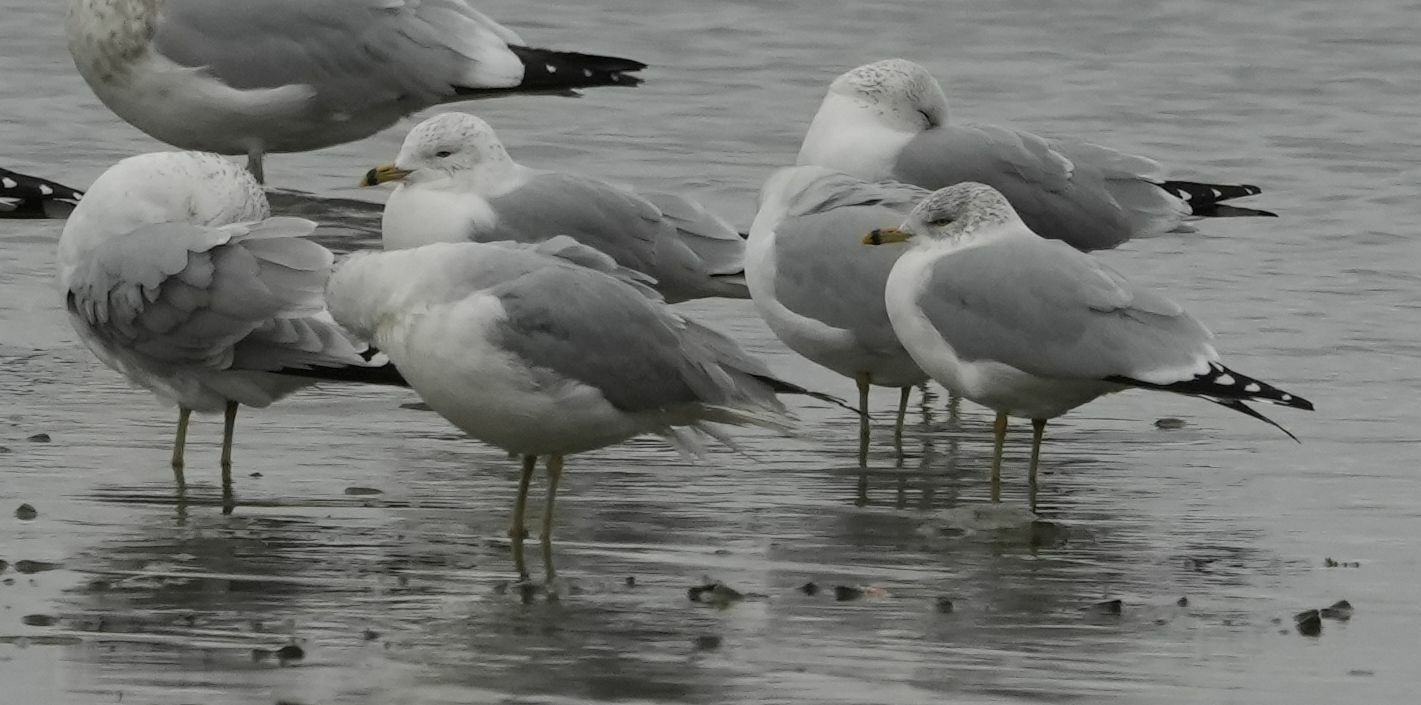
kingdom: Animalia
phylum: Chordata
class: Aves
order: Charadriiformes
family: Laridae
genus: Larus
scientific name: Larus delawarensis
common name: Ring-billed gull
